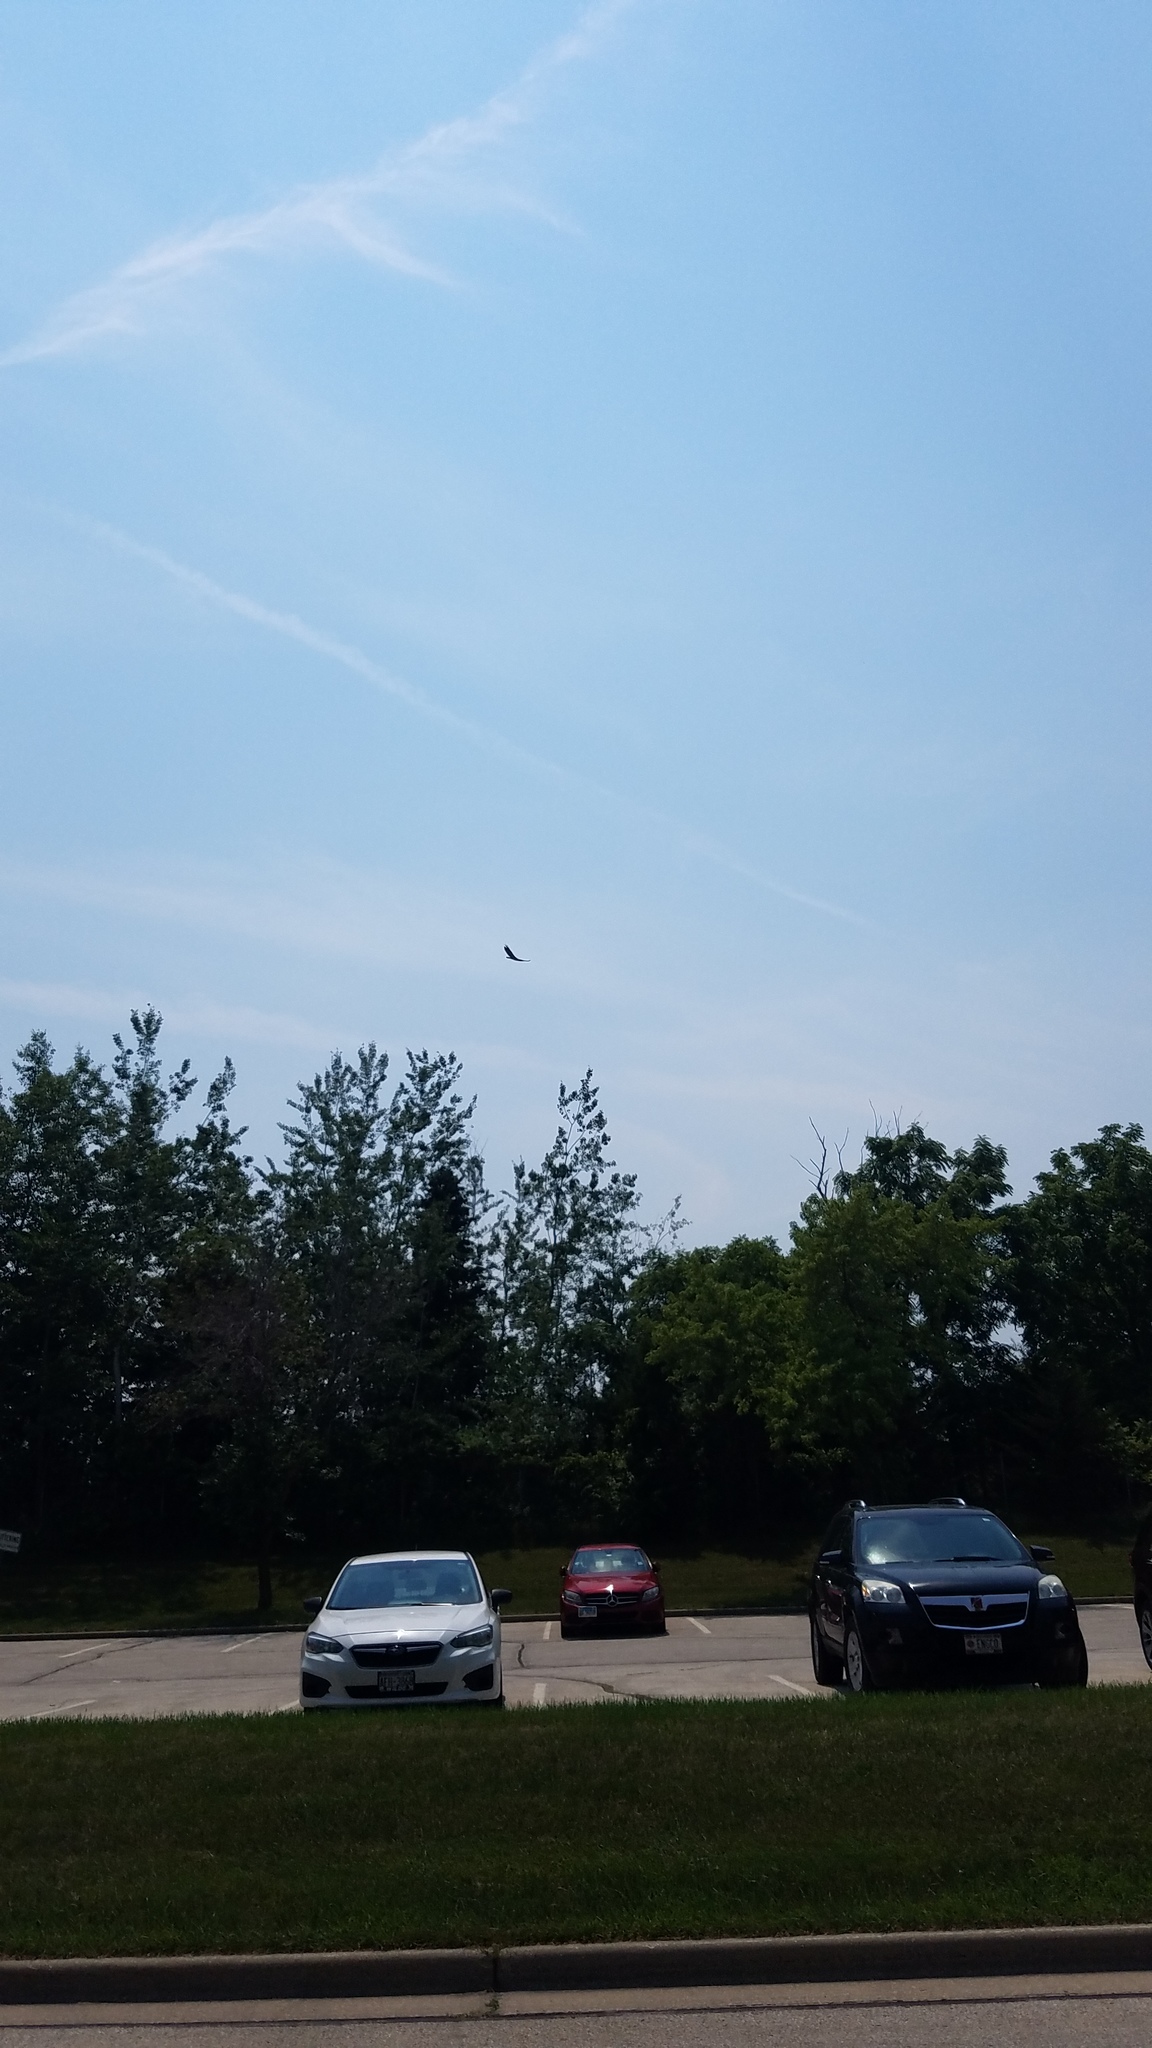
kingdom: Animalia
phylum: Chordata
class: Aves
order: Accipitriformes
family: Cathartidae
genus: Cathartes
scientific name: Cathartes aura
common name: Turkey vulture
